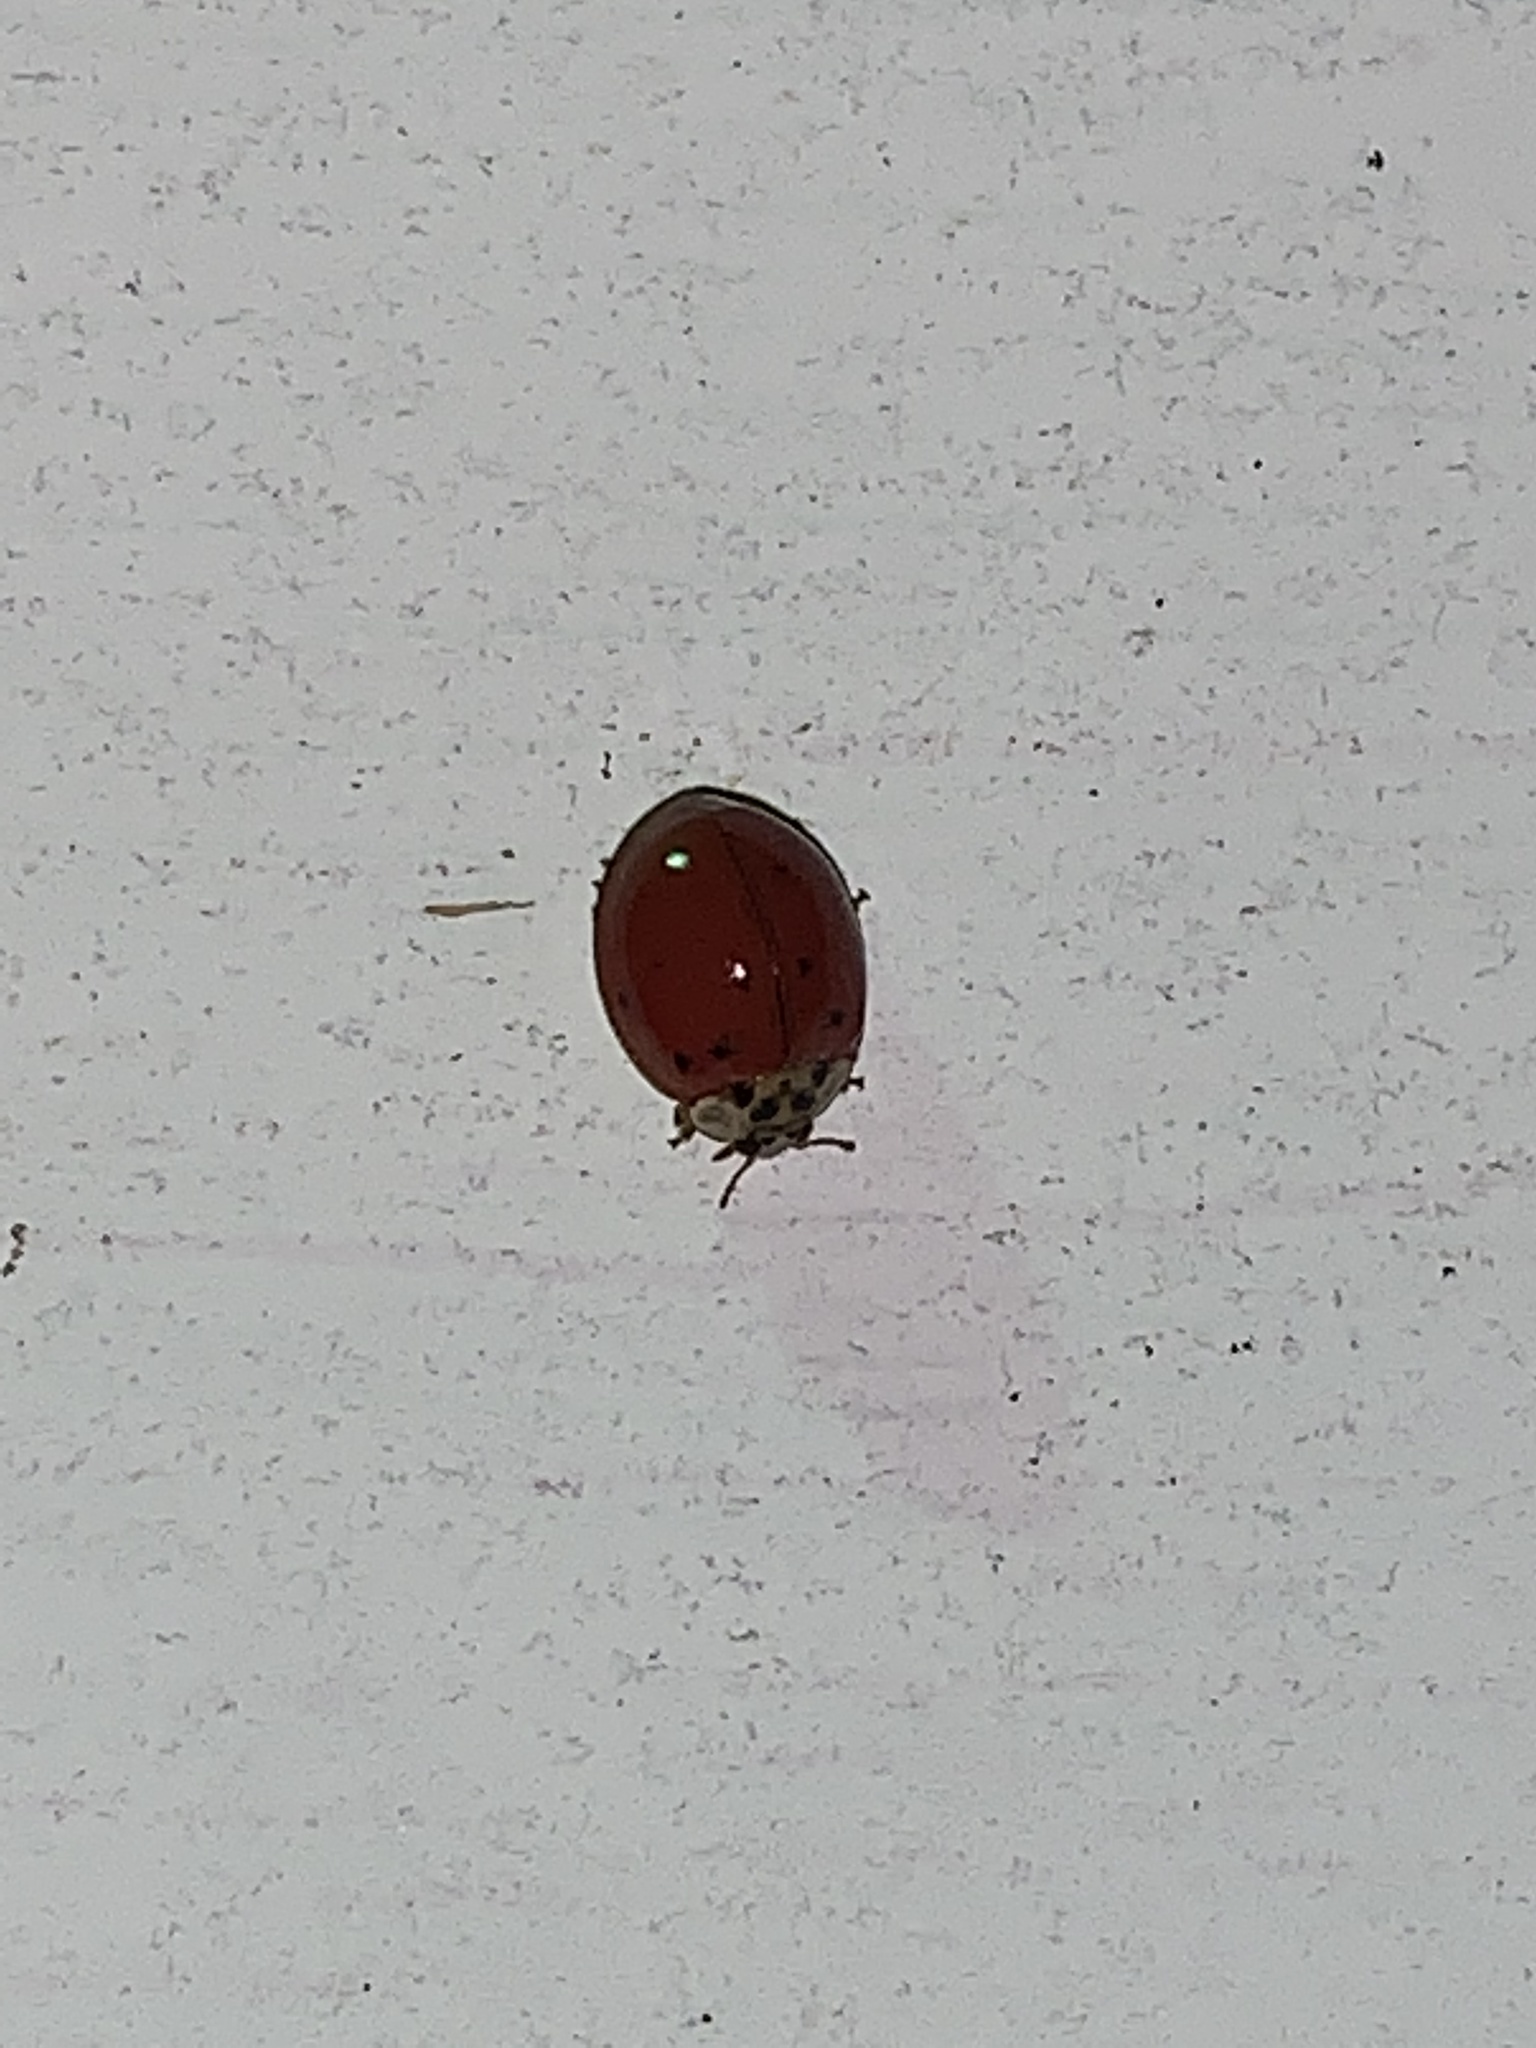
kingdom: Animalia
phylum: Arthropoda
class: Insecta
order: Coleoptera
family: Coccinellidae
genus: Harmonia
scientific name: Harmonia axyridis
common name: Harlequin ladybird
